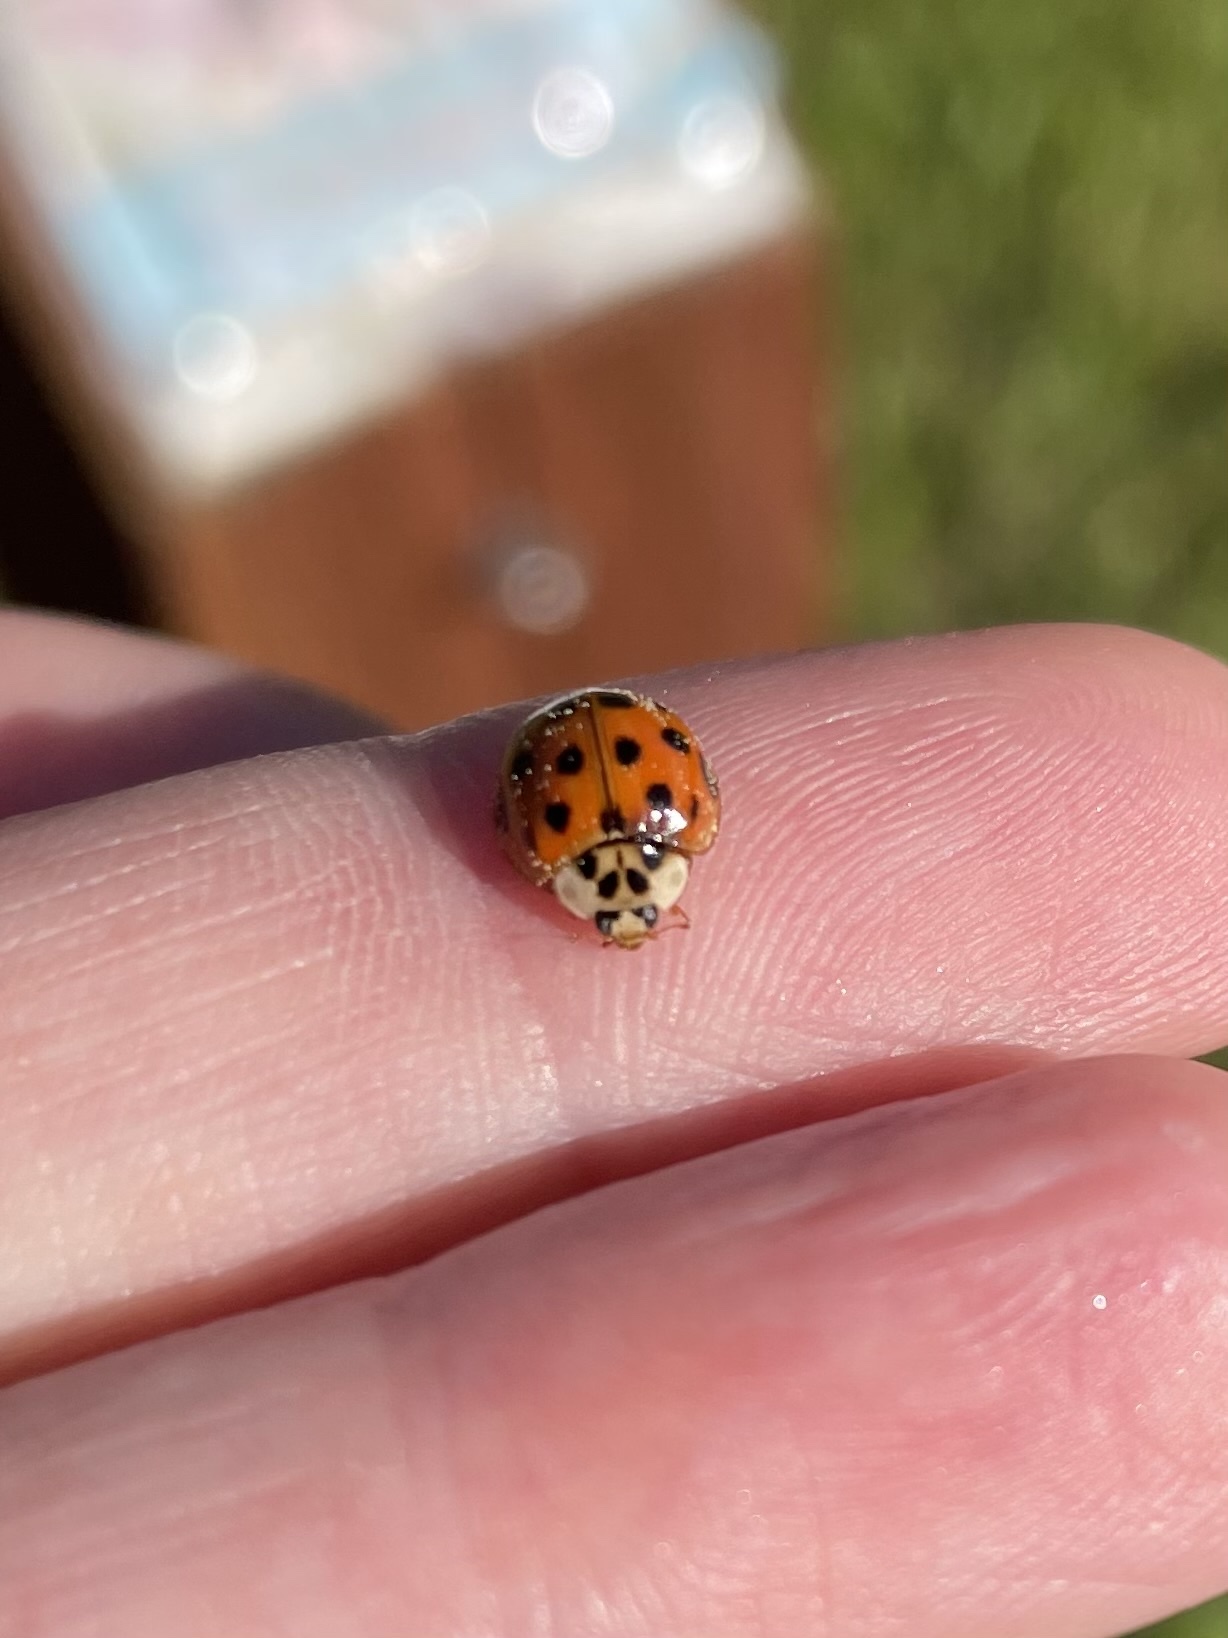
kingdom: Animalia
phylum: Arthropoda
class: Insecta
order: Coleoptera
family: Coccinellidae
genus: Harmonia
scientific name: Harmonia axyridis
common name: Harlequin ladybird
